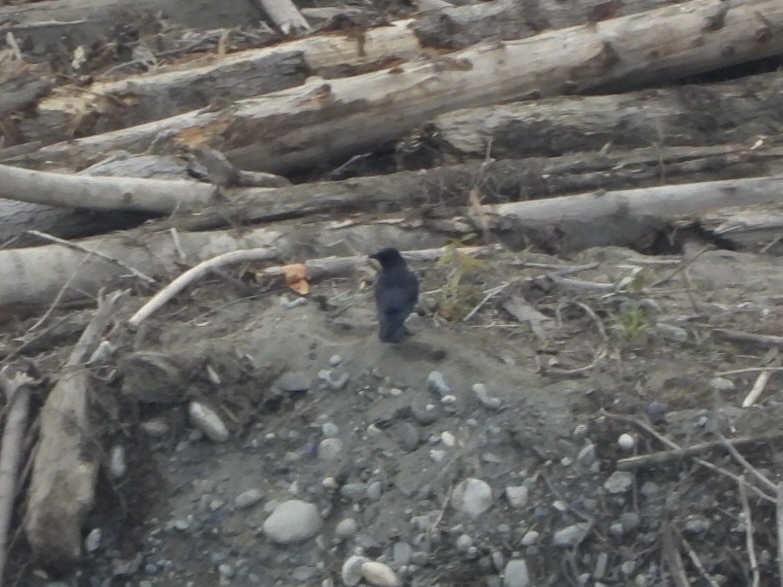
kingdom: Animalia
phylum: Chordata
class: Aves
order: Passeriformes
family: Corvidae
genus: Corvus
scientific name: Corvus brachyrhynchos
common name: American crow
